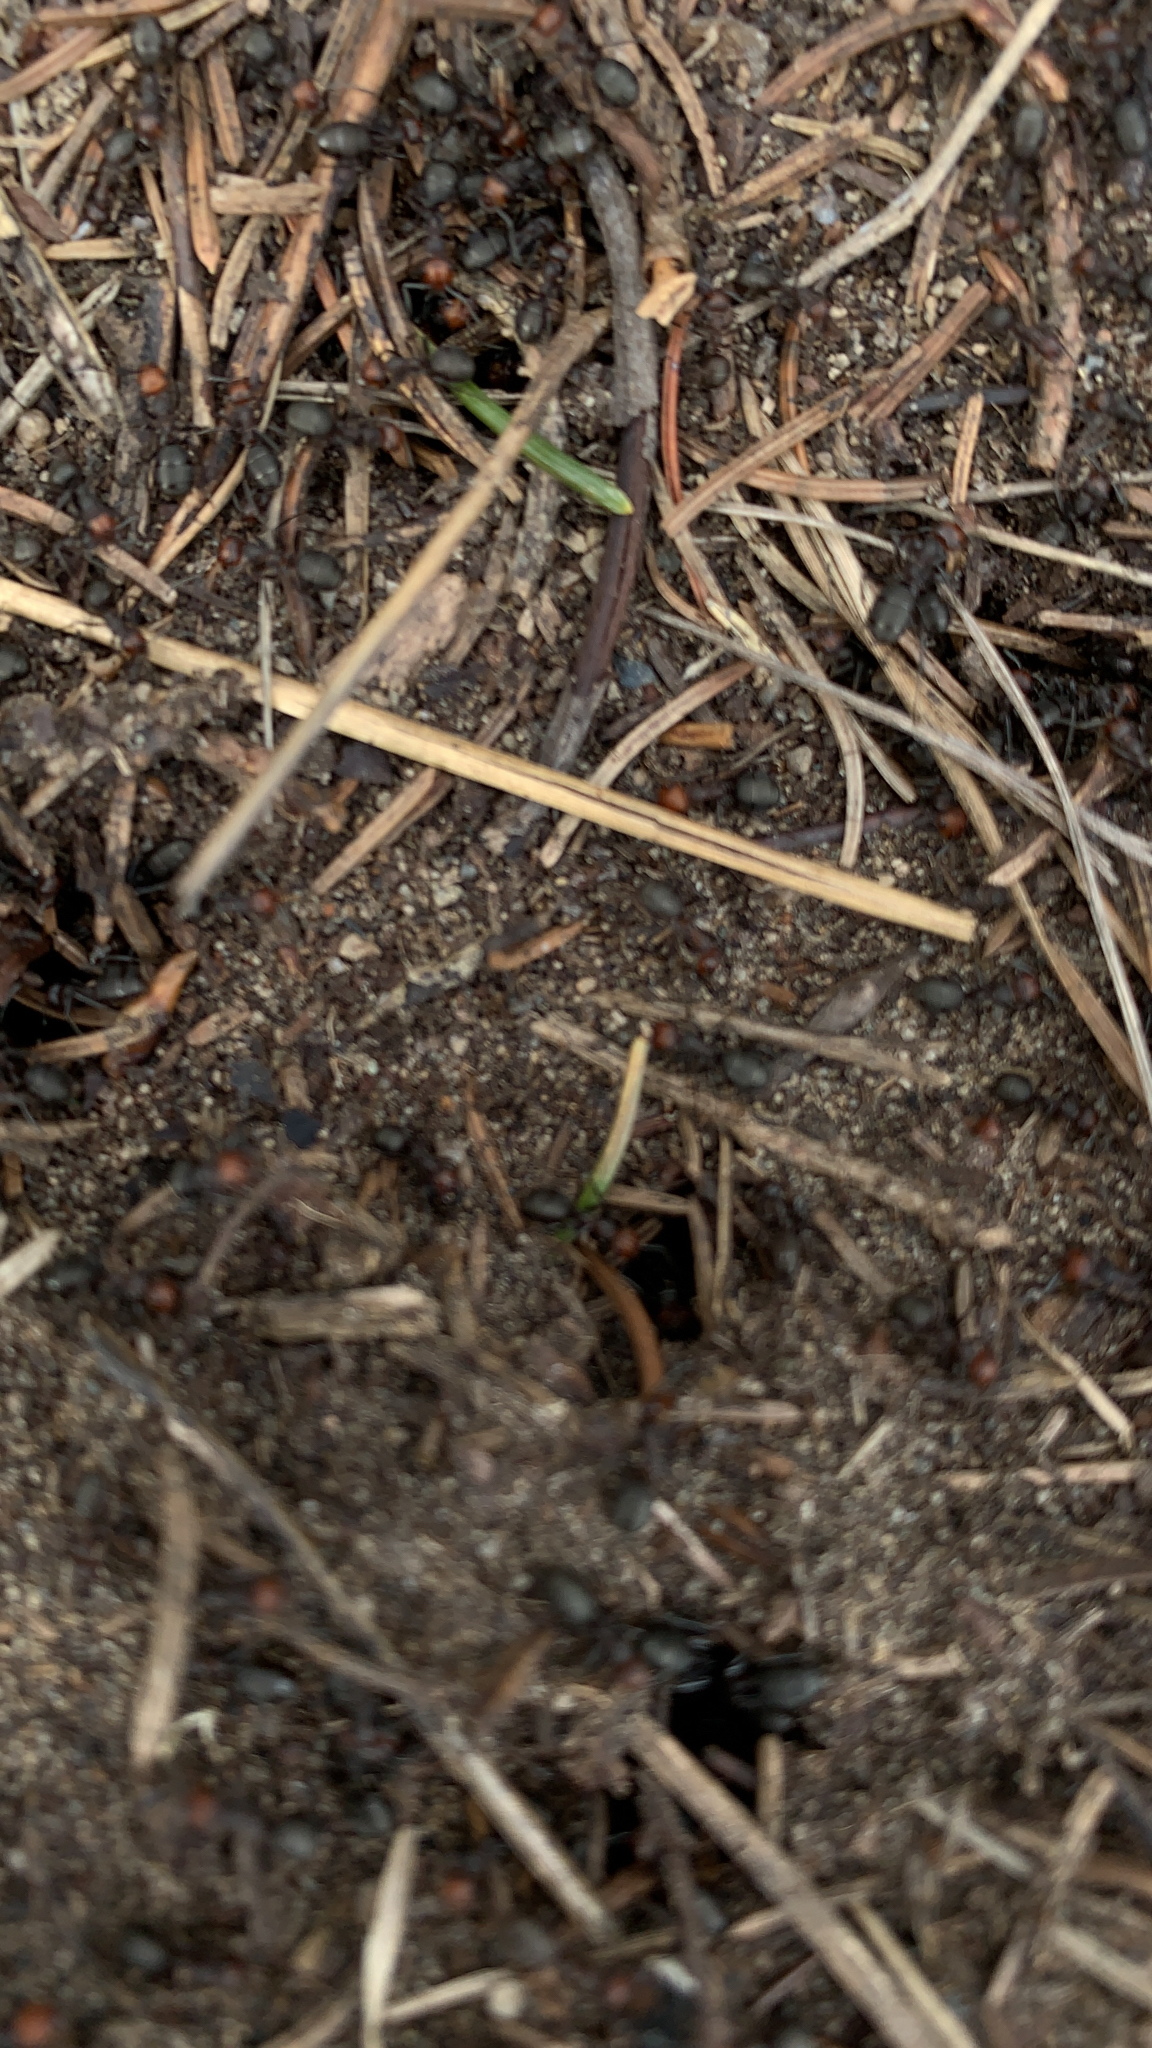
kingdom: Animalia
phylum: Arthropoda
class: Insecta
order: Hymenoptera
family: Formicidae
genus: Formica
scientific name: Formica obscuripes
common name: Western thatching ant
